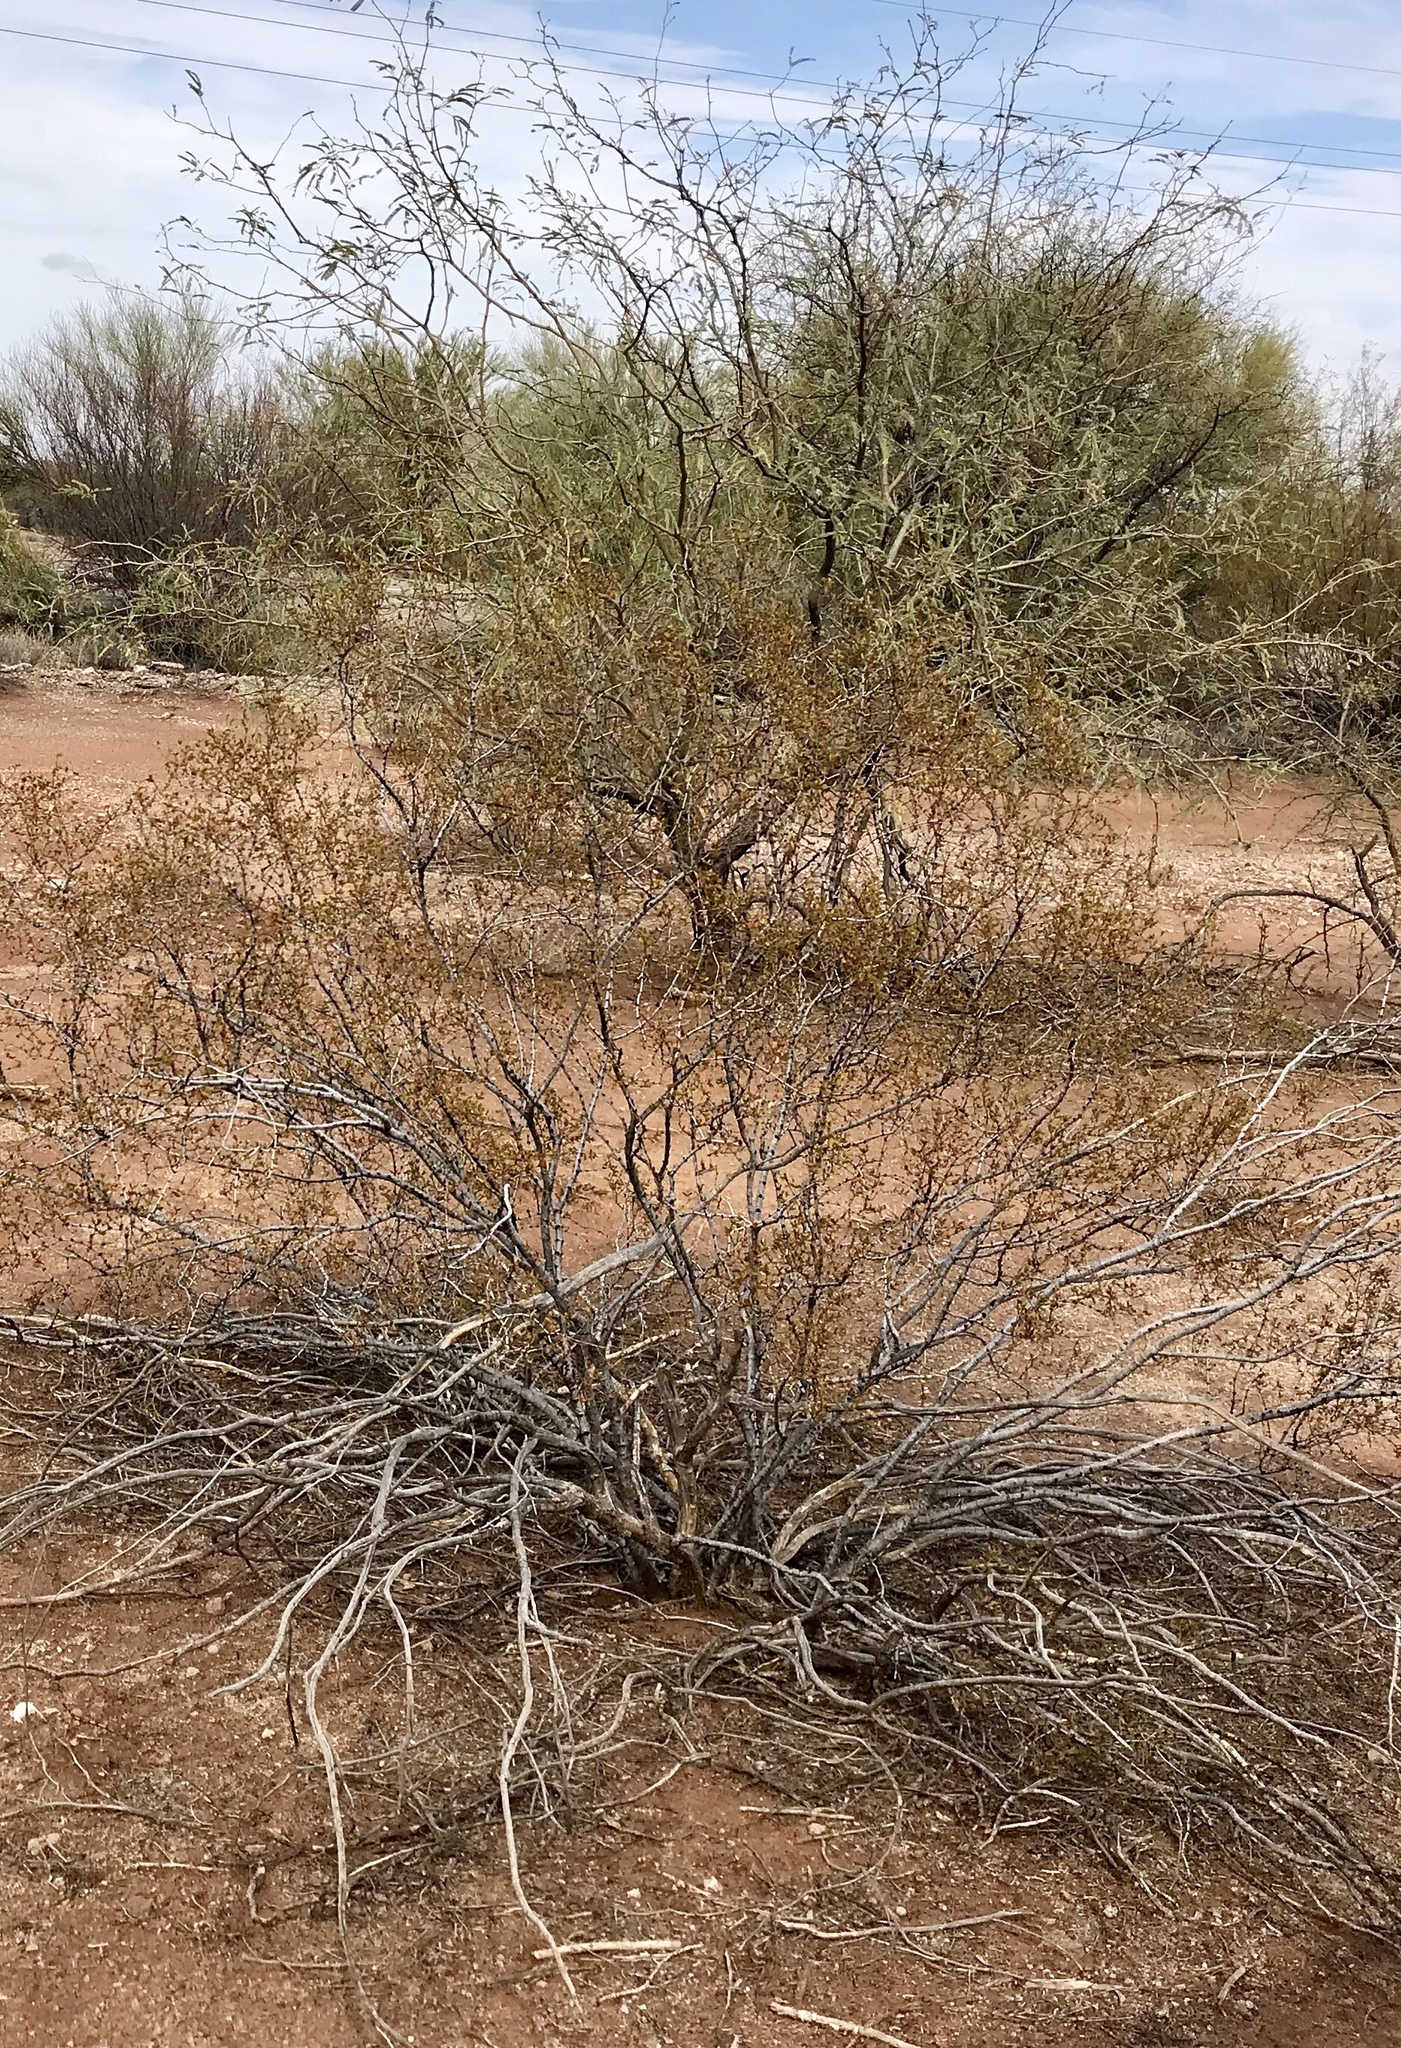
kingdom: Plantae
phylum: Tracheophyta
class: Magnoliopsida
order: Zygophyllales
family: Zygophyllaceae
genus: Larrea
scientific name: Larrea tridentata
